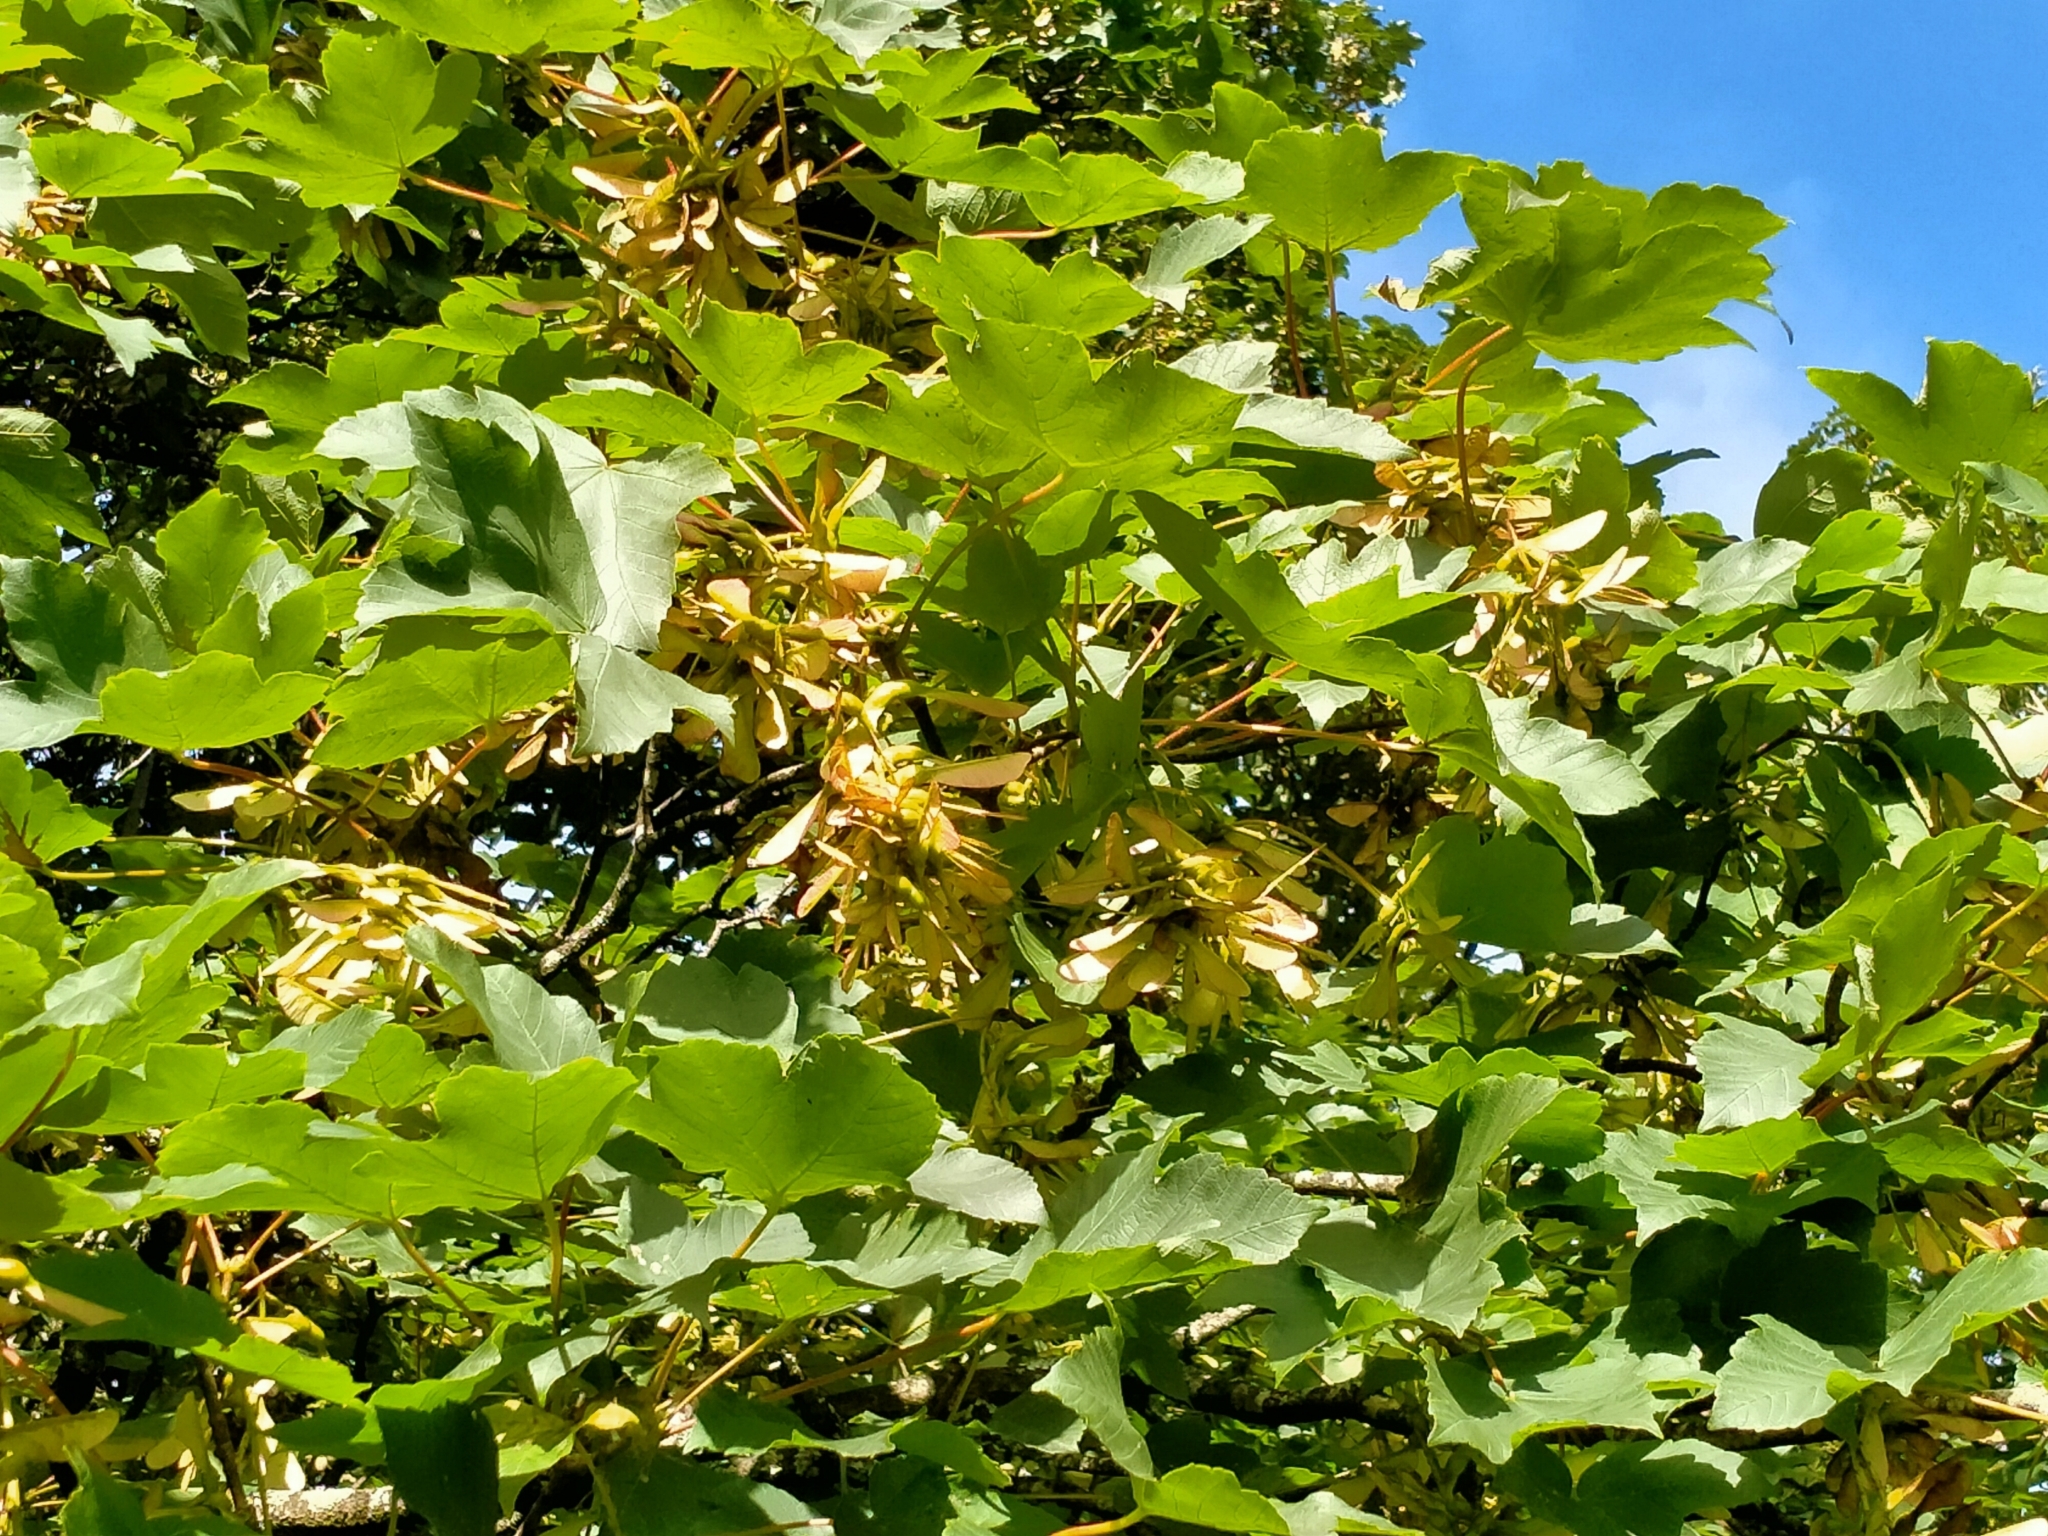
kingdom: Plantae
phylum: Tracheophyta
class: Magnoliopsida
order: Sapindales
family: Sapindaceae
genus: Acer
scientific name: Acer pseudoplatanus
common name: Sycamore
